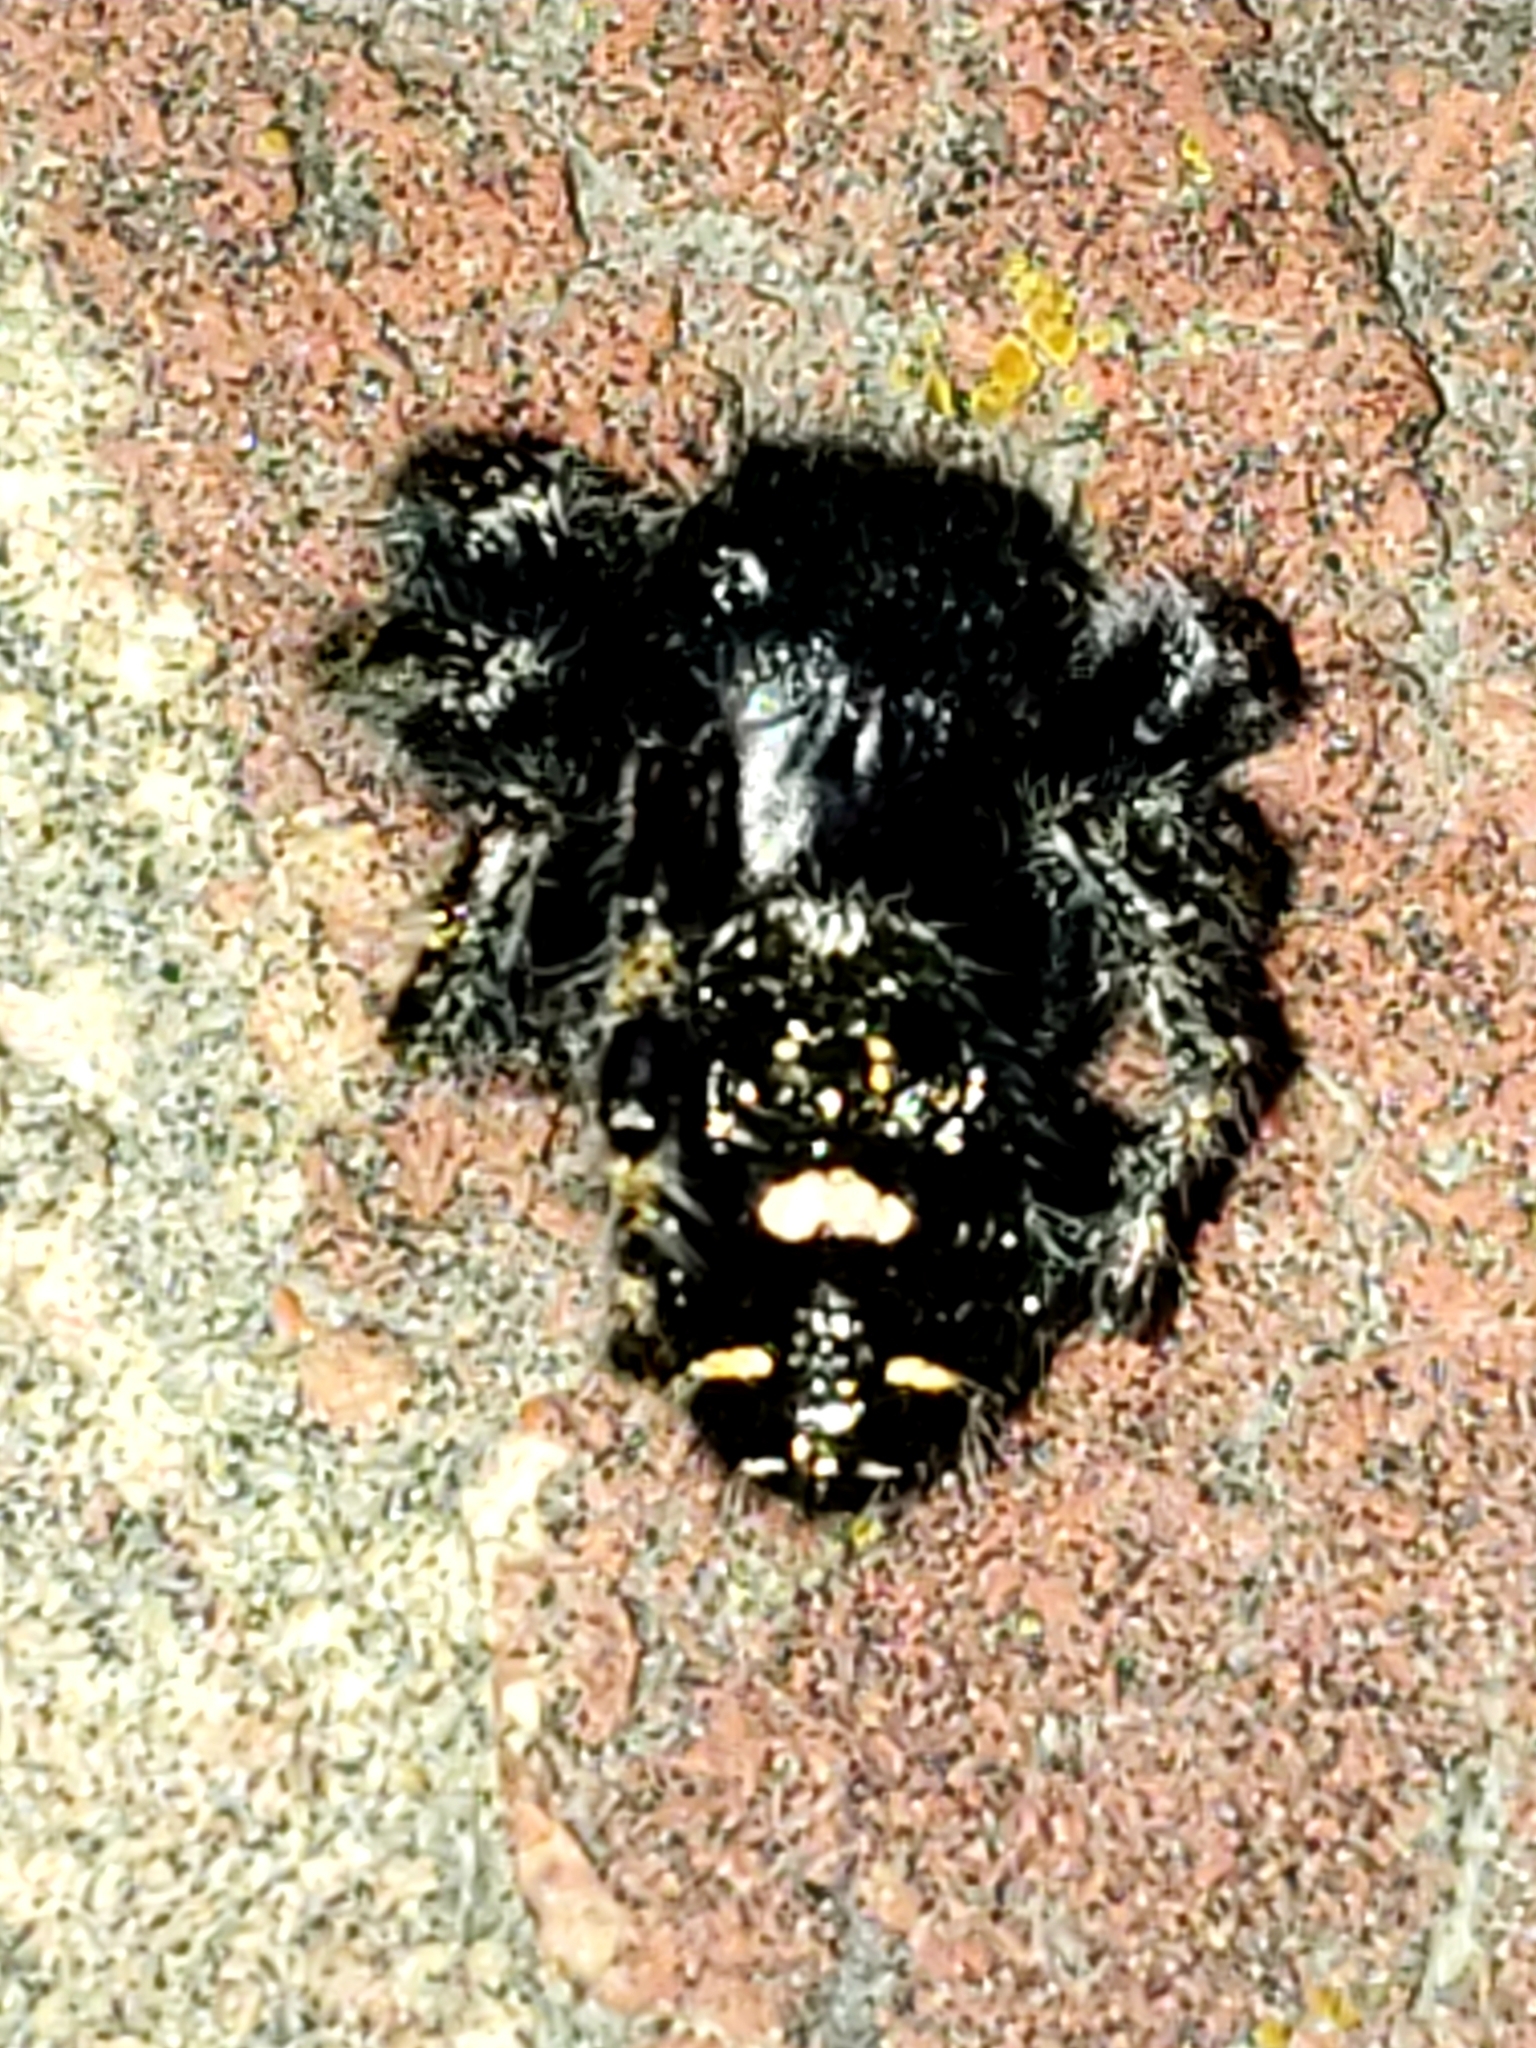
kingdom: Animalia
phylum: Arthropoda
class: Arachnida
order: Araneae
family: Salticidae
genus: Phidippus
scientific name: Phidippus audax
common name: Bold jumper
